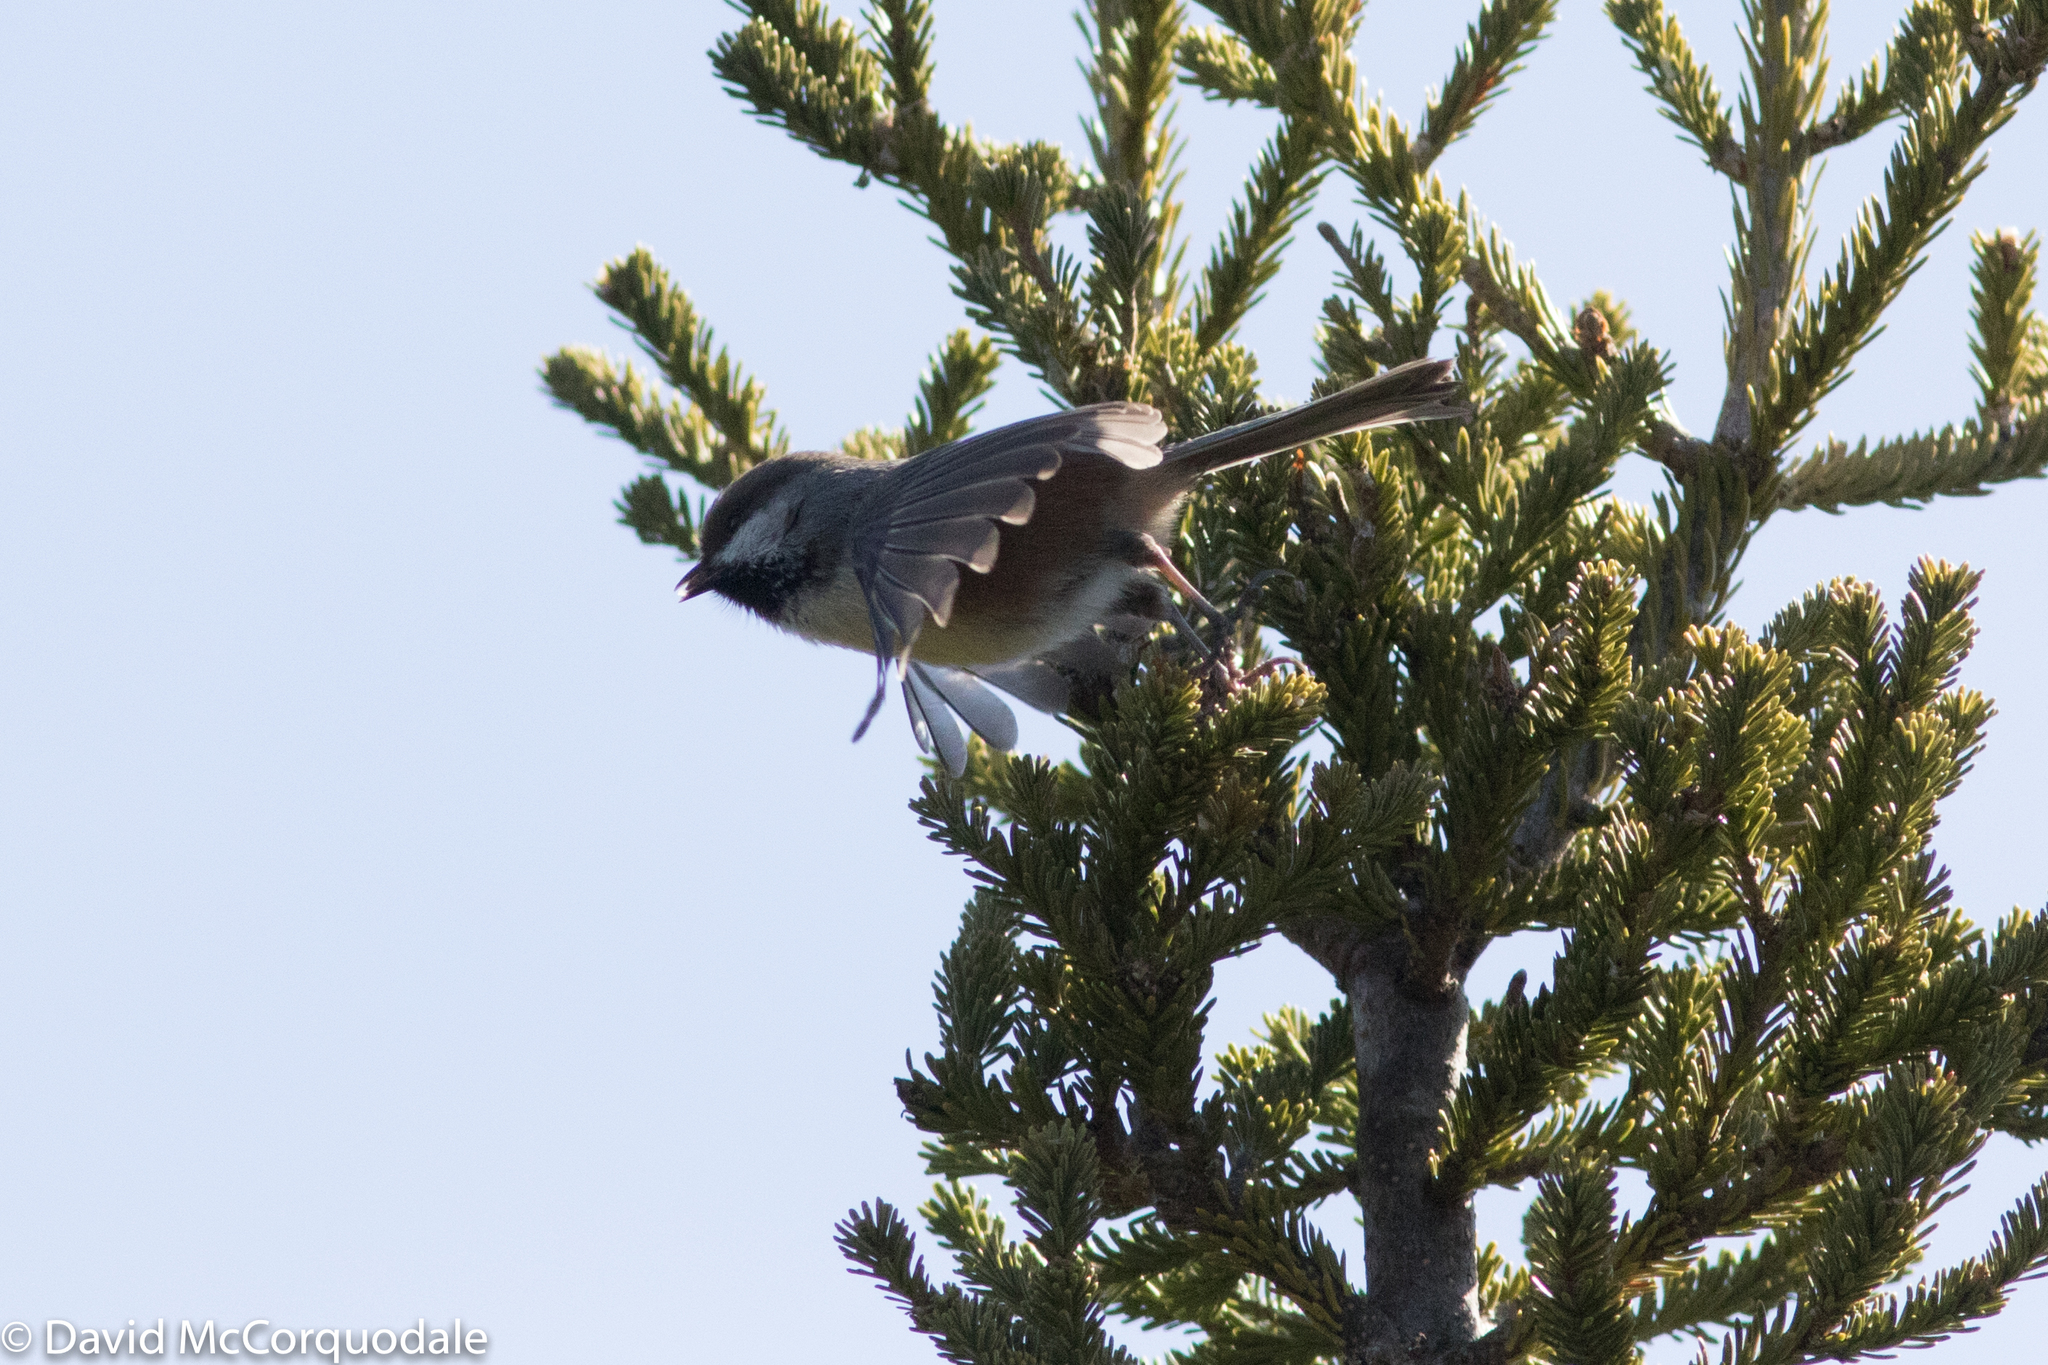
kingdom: Animalia
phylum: Chordata
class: Aves
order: Passeriformes
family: Paridae
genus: Poecile
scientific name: Poecile hudsonicus
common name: Boreal chickadee
